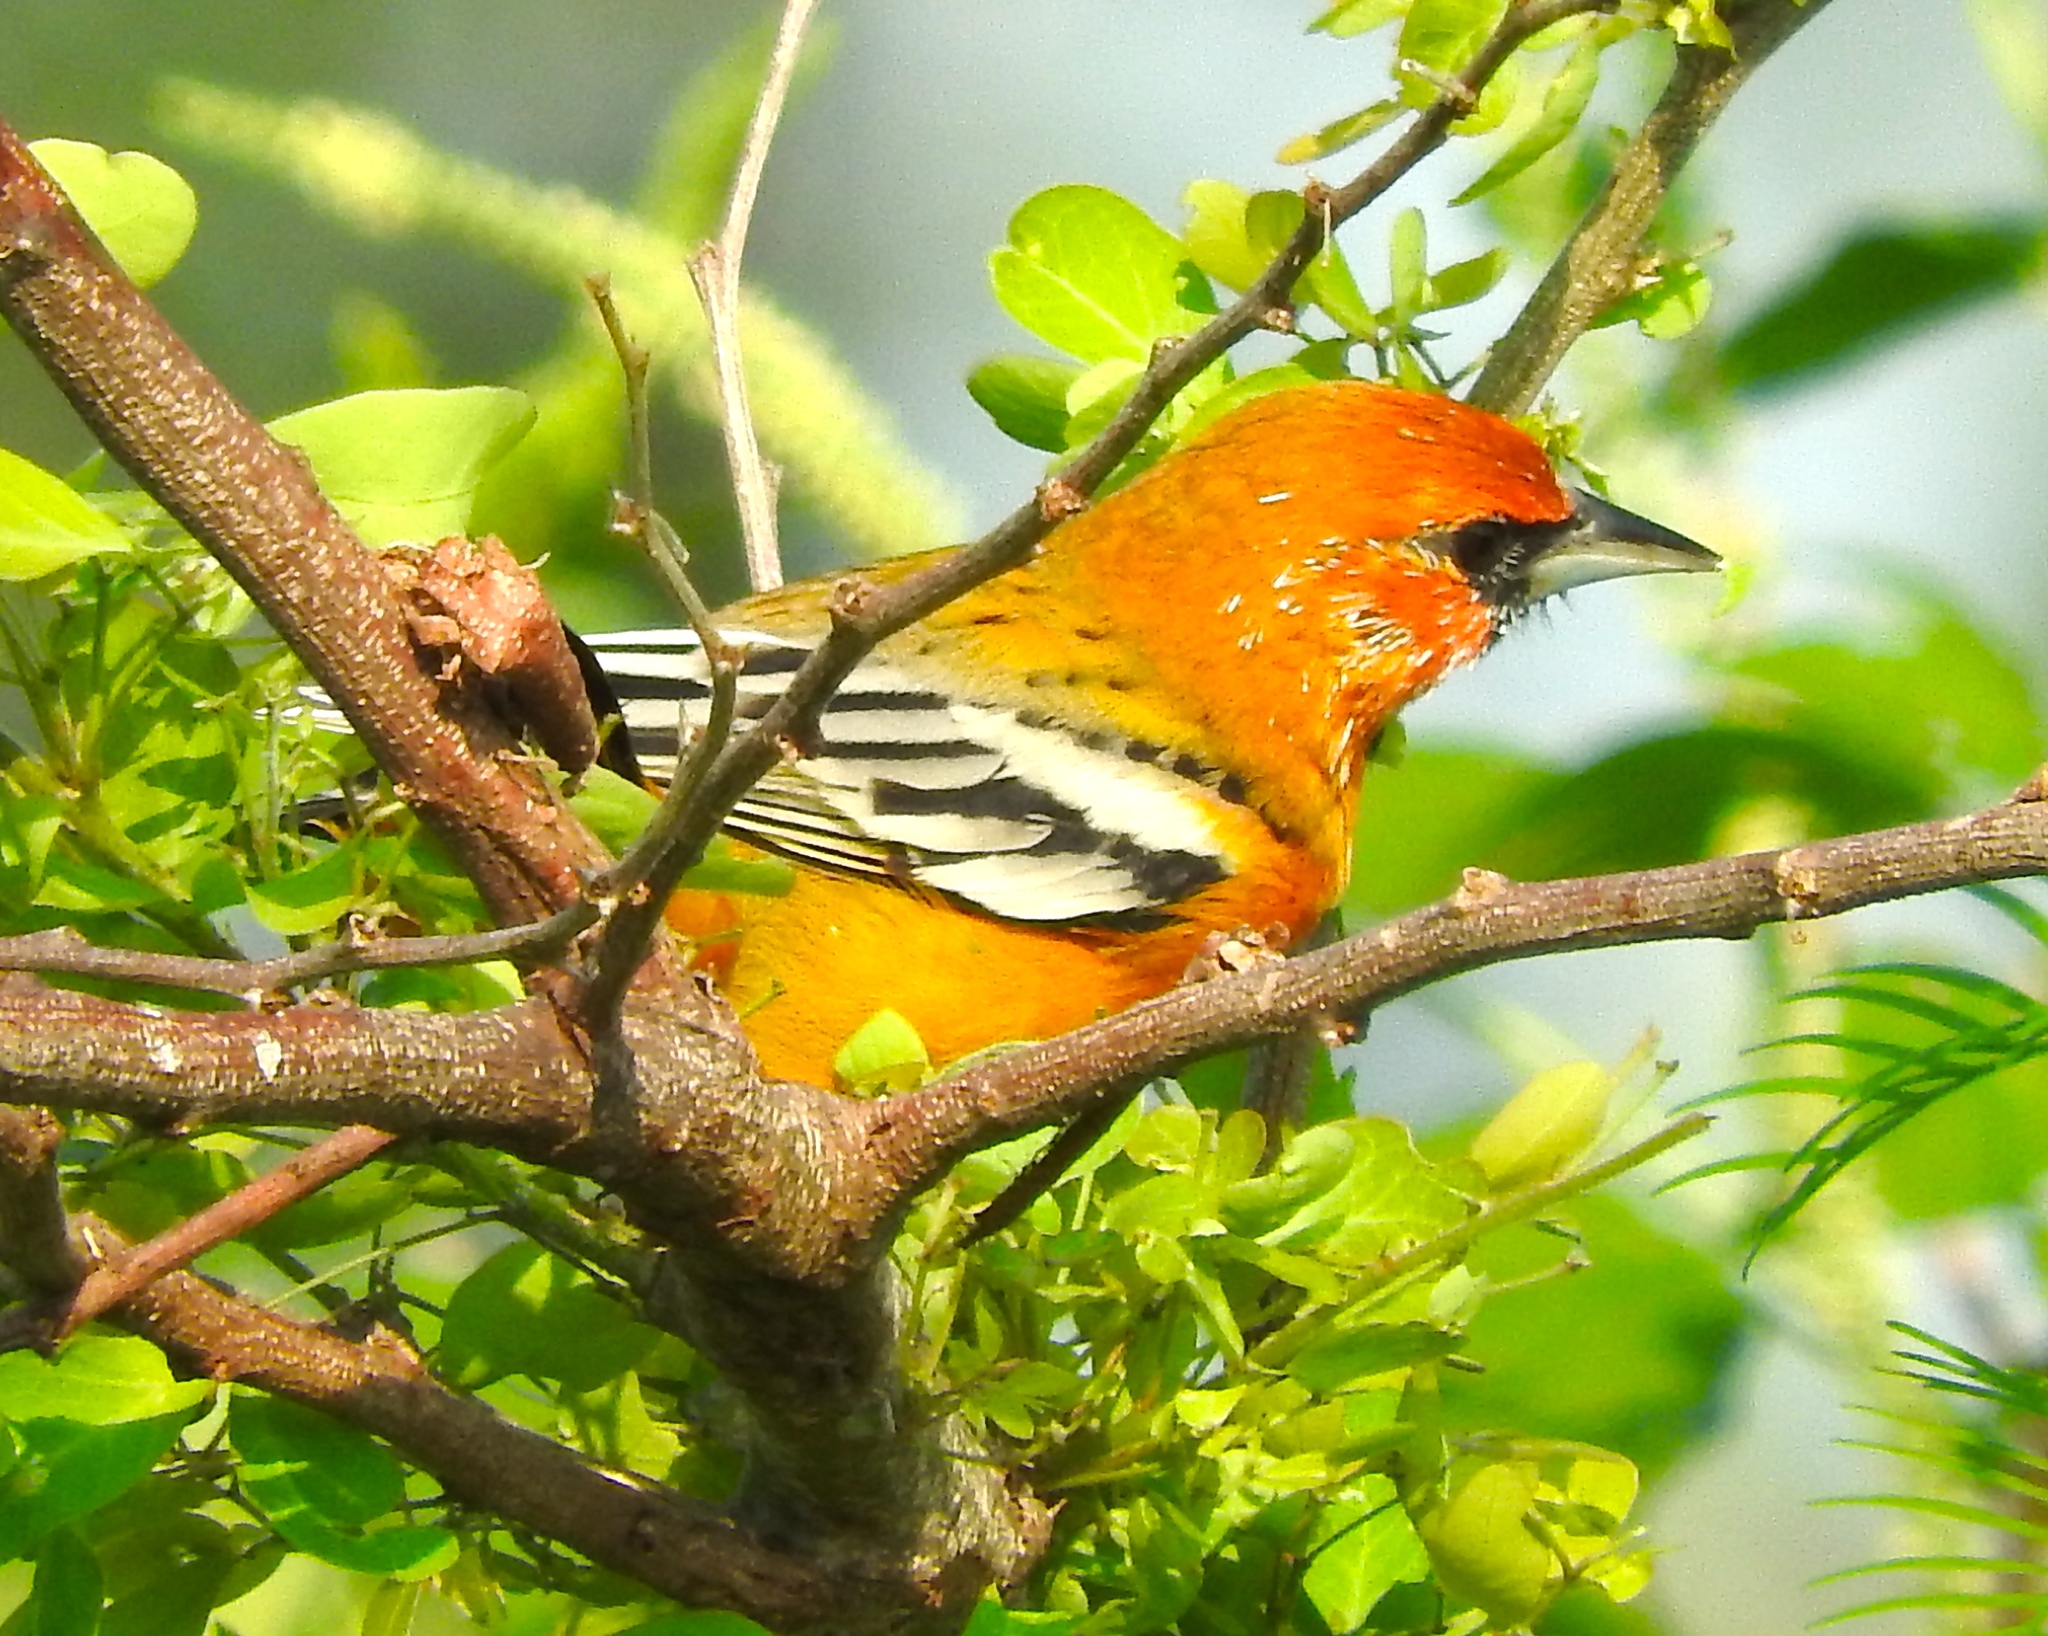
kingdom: Animalia
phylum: Chordata
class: Aves
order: Passeriformes
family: Icteridae
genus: Icterus
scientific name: Icterus pustulatus
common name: Streak-backed oriole
